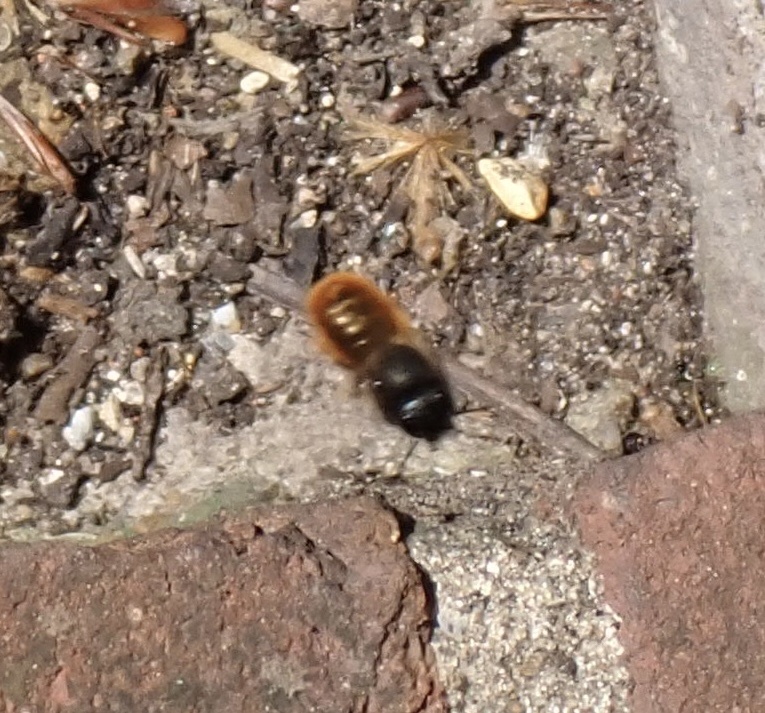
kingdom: Animalia
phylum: Arthropoda
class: Insecta
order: Hymenoptera
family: Megachilidae
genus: Osmia
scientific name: Osmia bicornis
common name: Red mason bee
